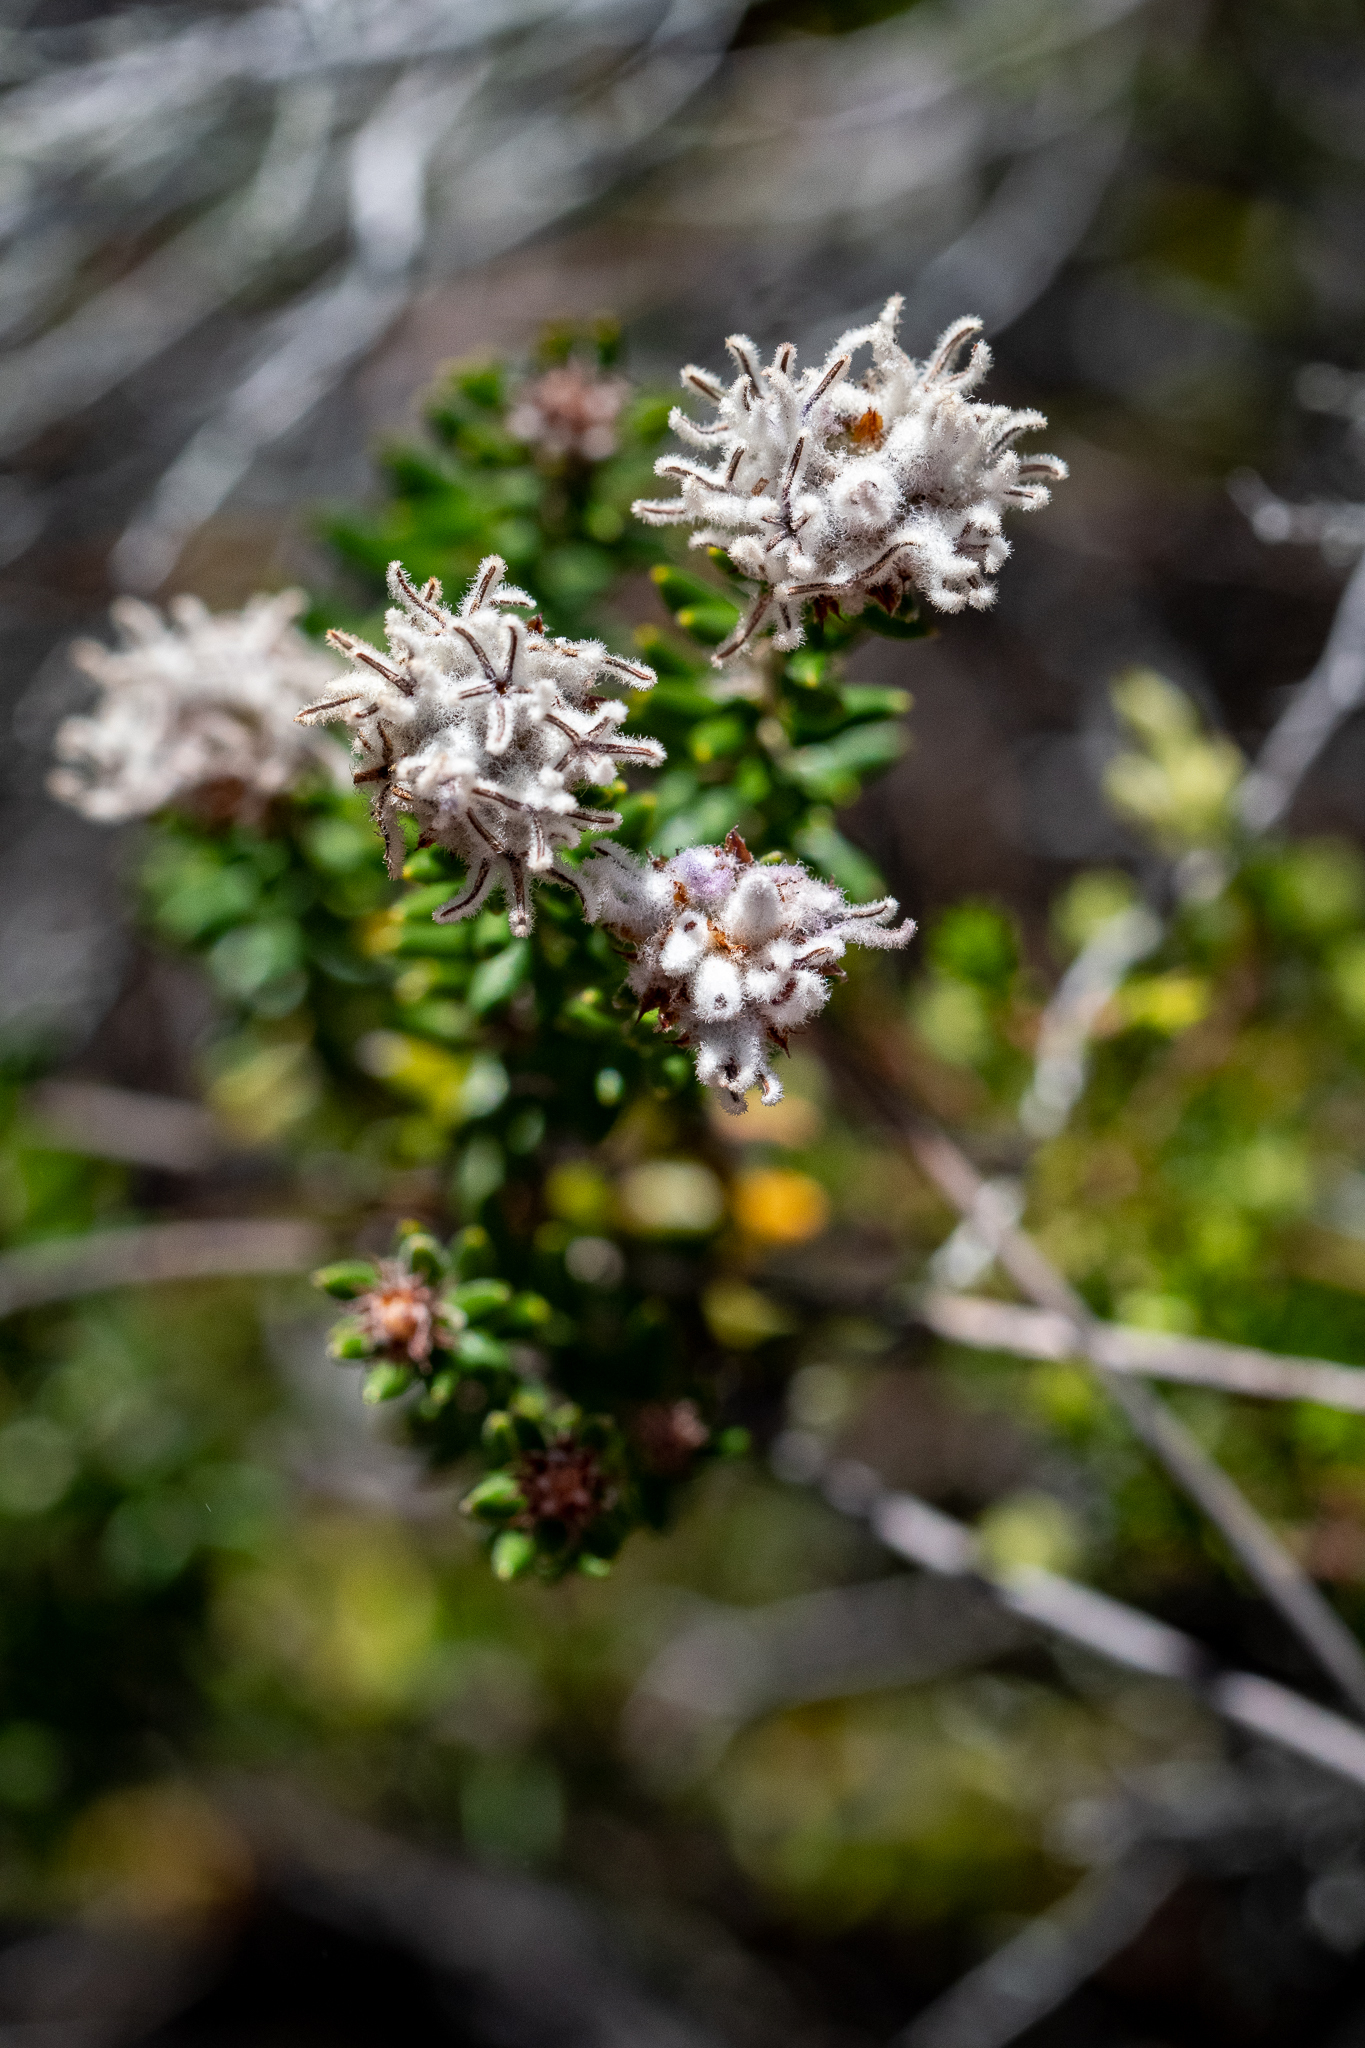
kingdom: Plantae
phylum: Tracheophyta
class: Magnoliopsida
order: Rosales
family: Rhamnaceae
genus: Trichocephalus
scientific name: Trichocephalus stipularis
